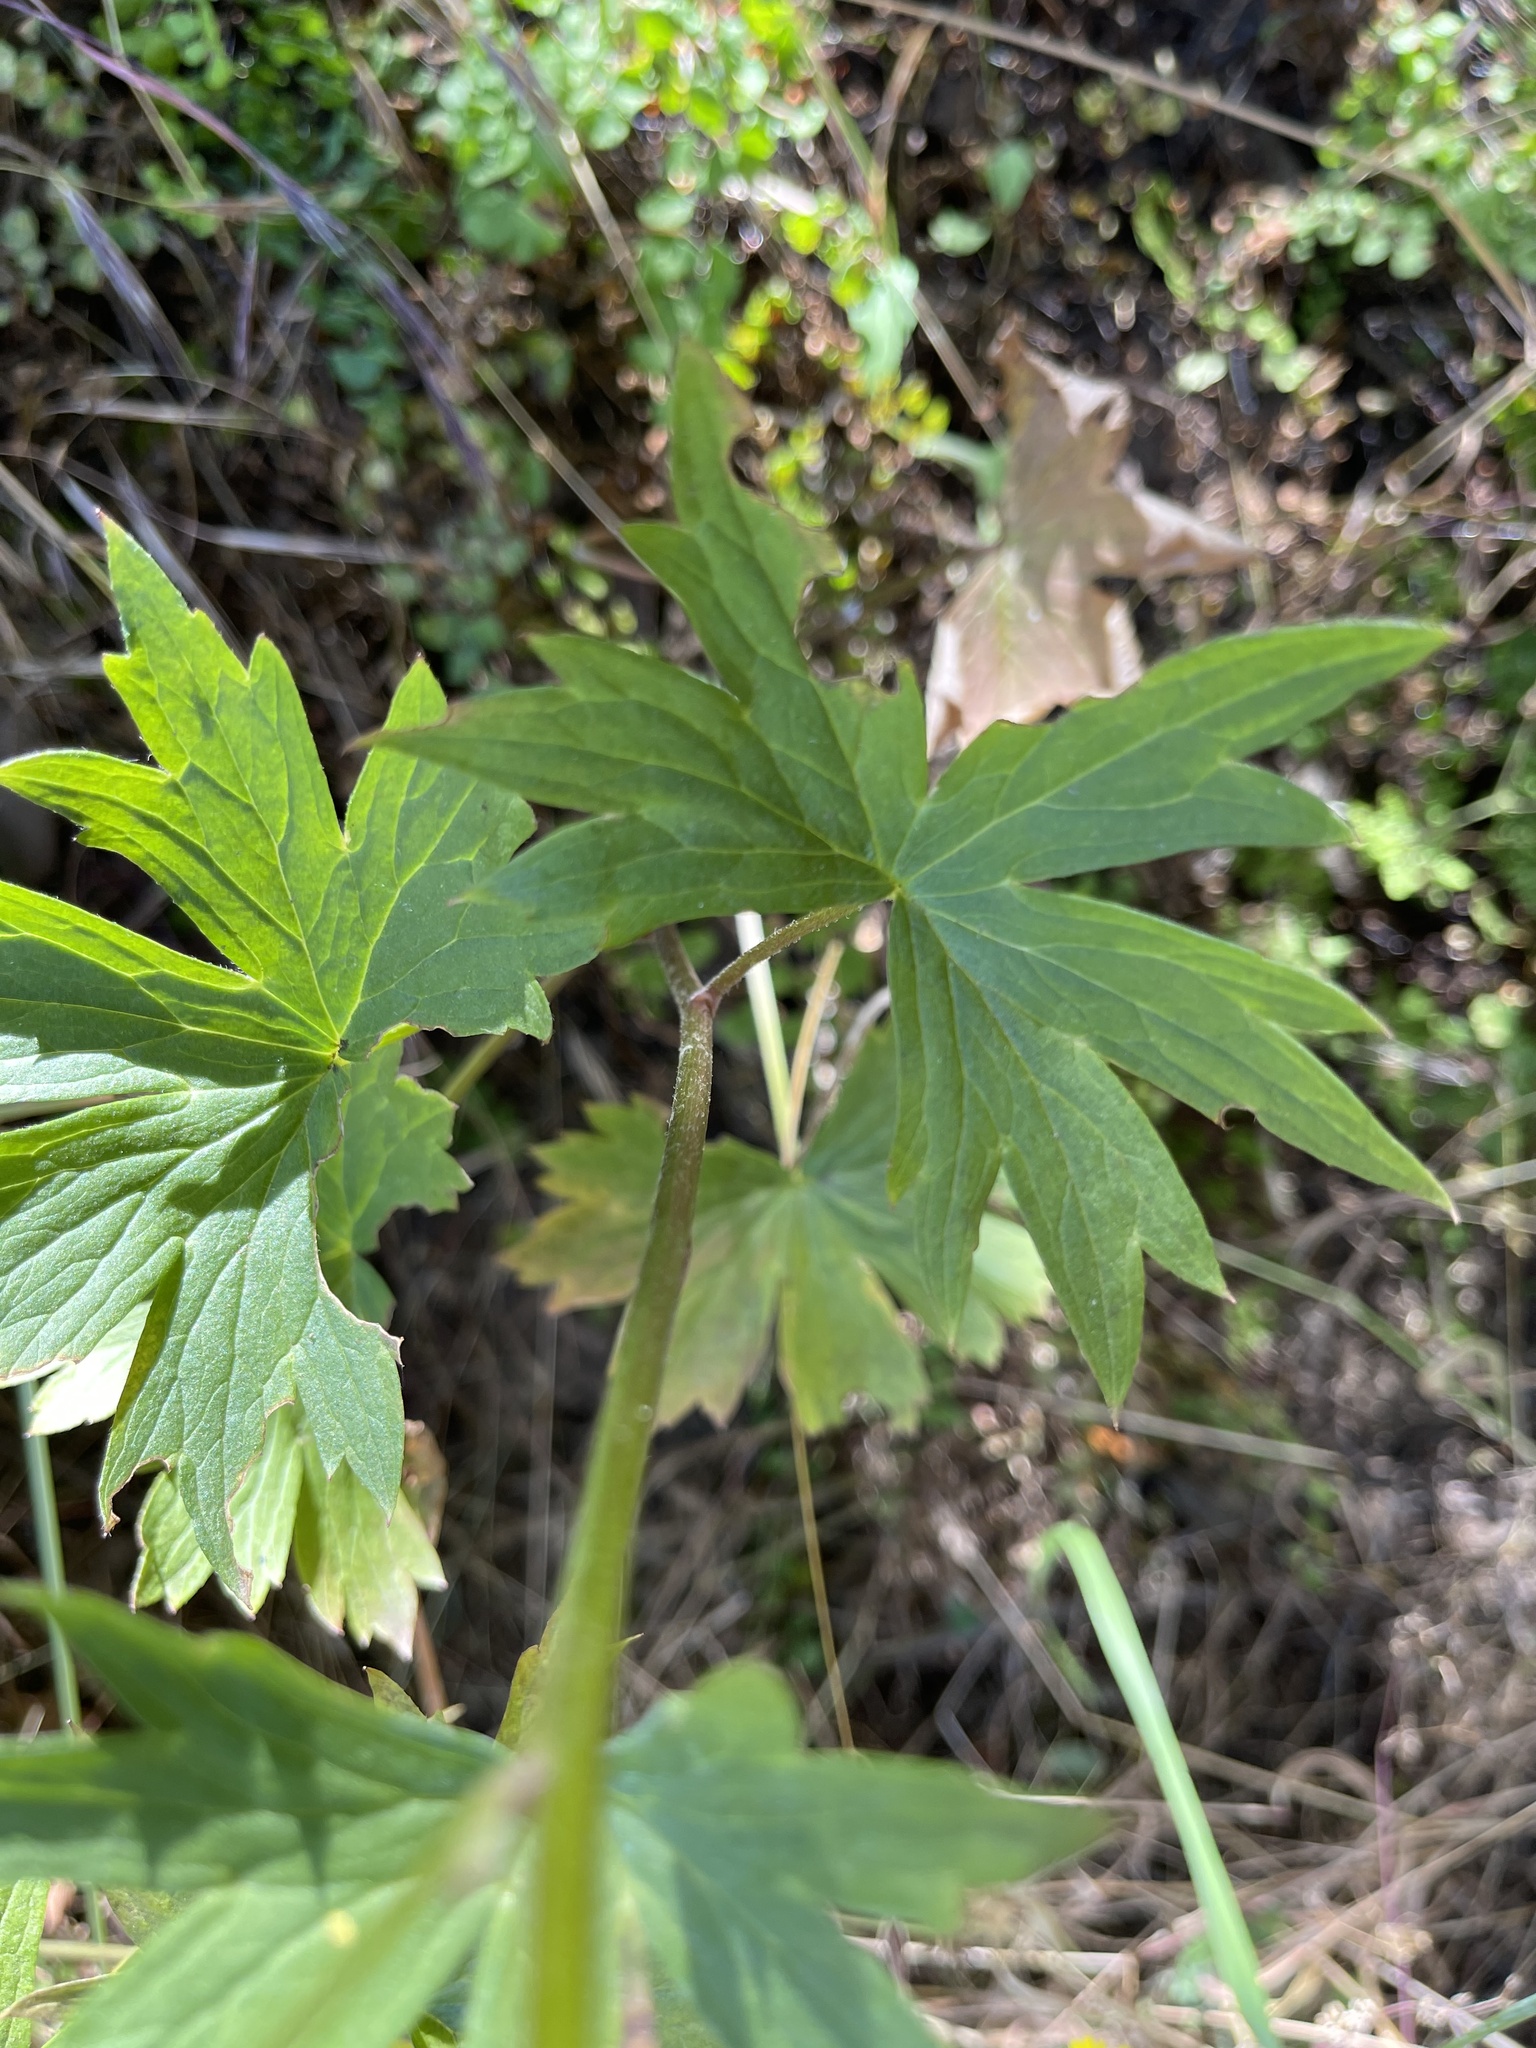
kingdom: Plantae
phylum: Tracheophyta
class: Magnoliopsida
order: Ranunculales
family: Ranunculaceae
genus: Delphinium
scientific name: Delphinium californicum
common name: California larkspur
